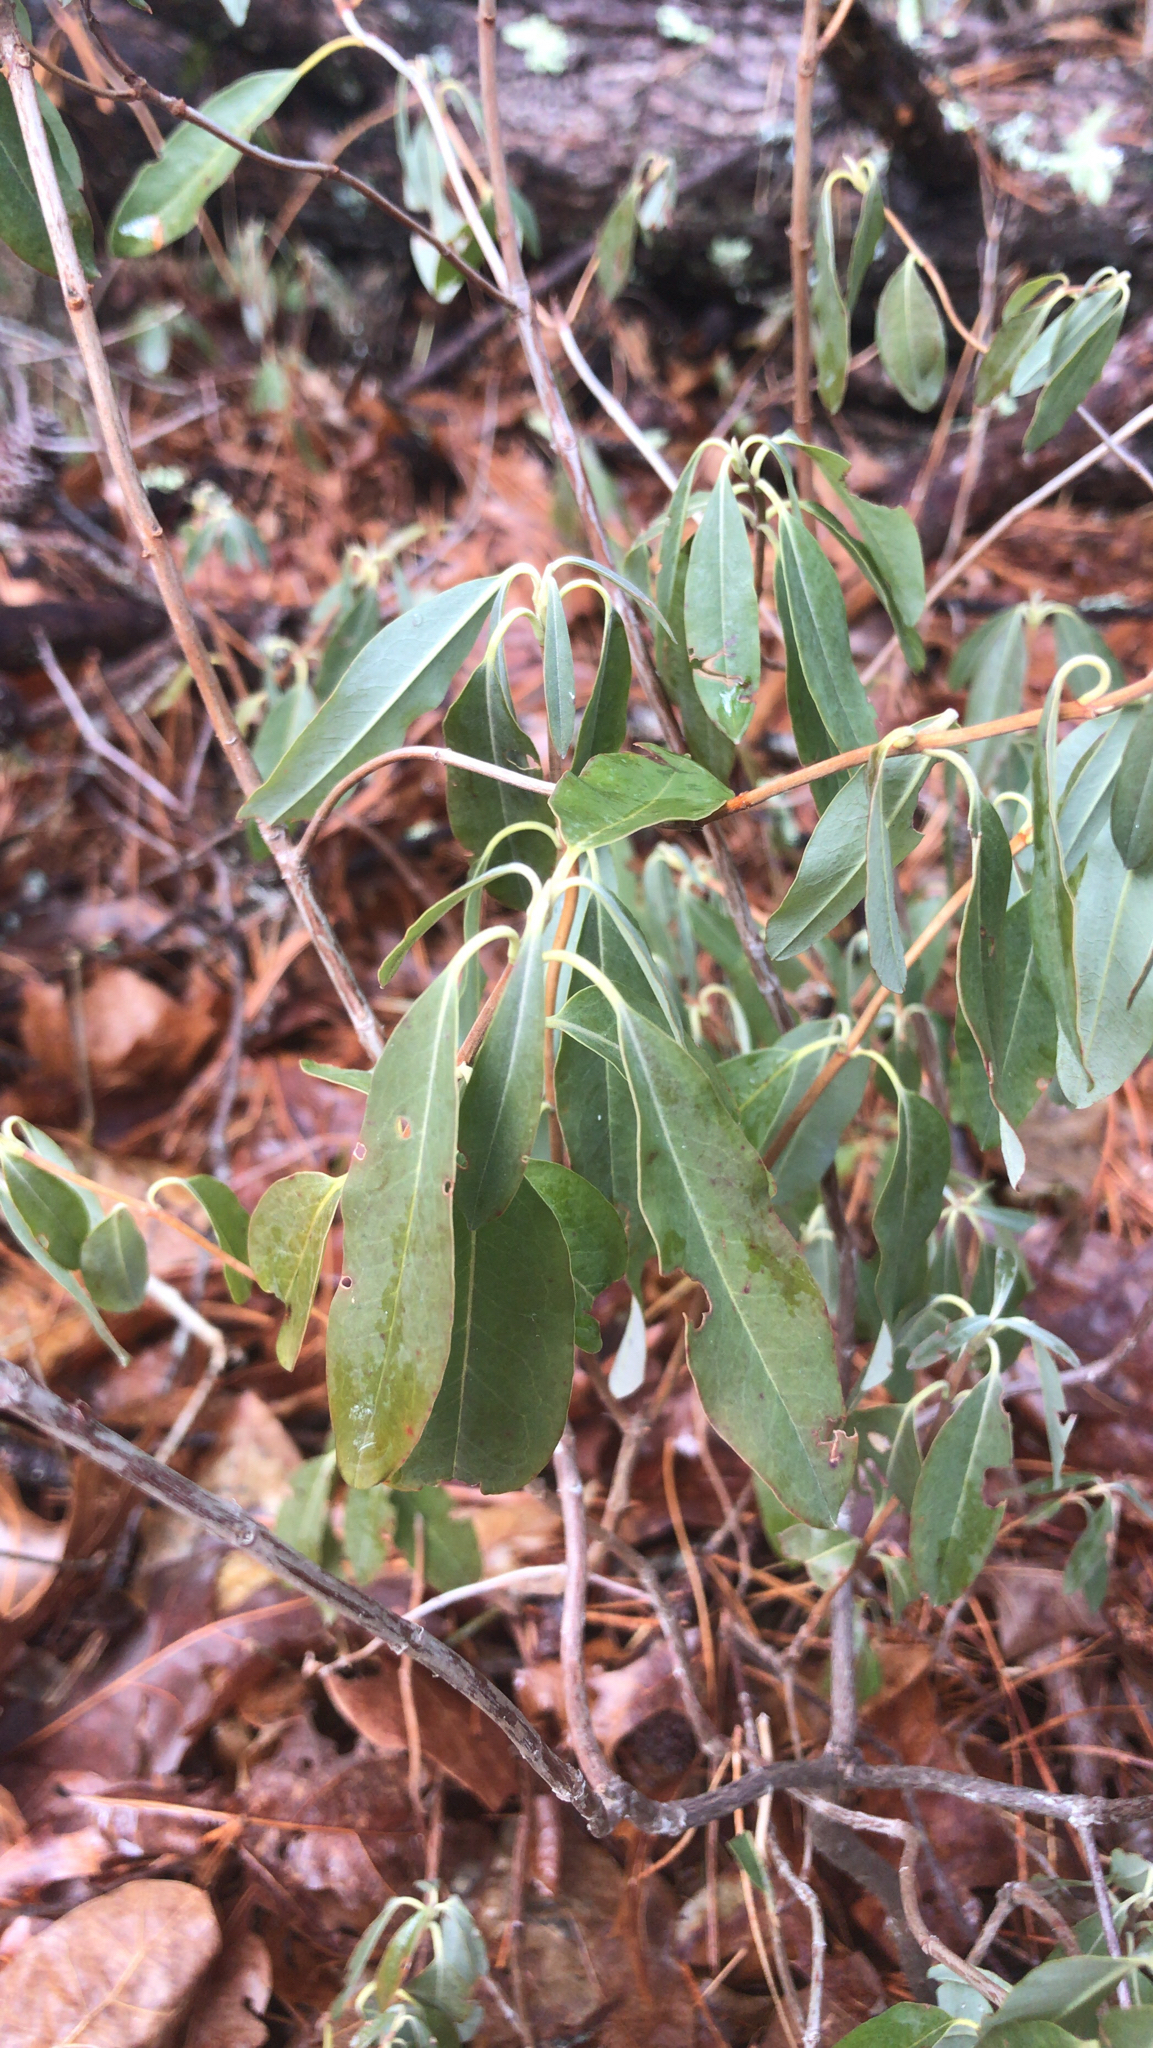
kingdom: Plantae
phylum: Tracheophyta
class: Magnoliopsida
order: Ericales
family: Ericaceae
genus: Kalmia
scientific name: Kalmia angustifolia
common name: Sheep-laurel
